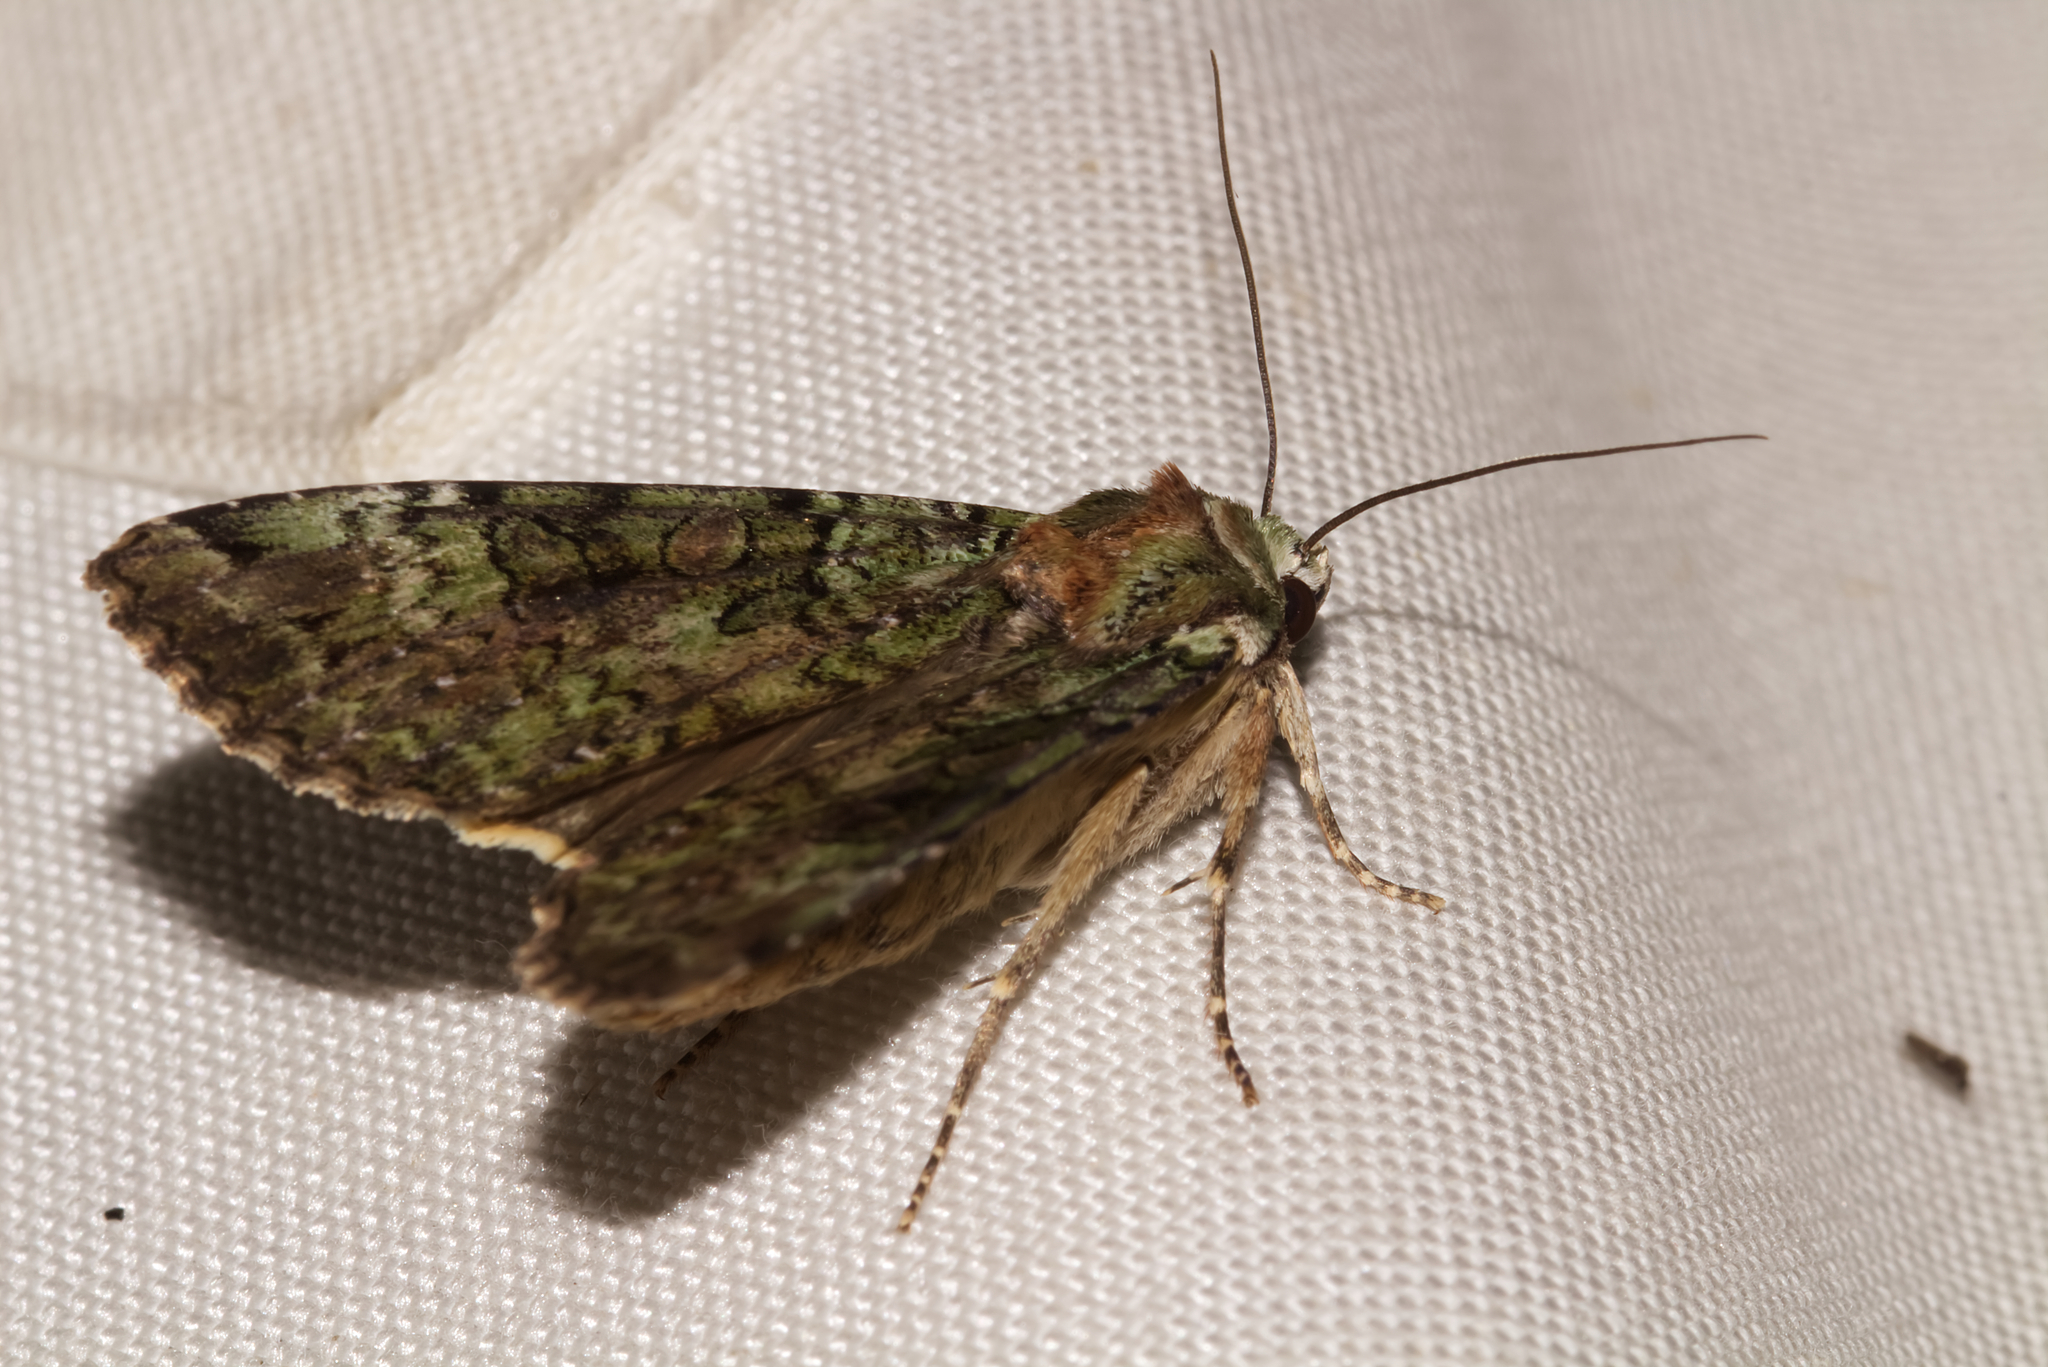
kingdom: Animalia
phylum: Arthropoda
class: Insecta
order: Lepidoptera
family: Noctuidae
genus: Anaplectoides
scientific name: Anaplectoides prasina
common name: Green arches
